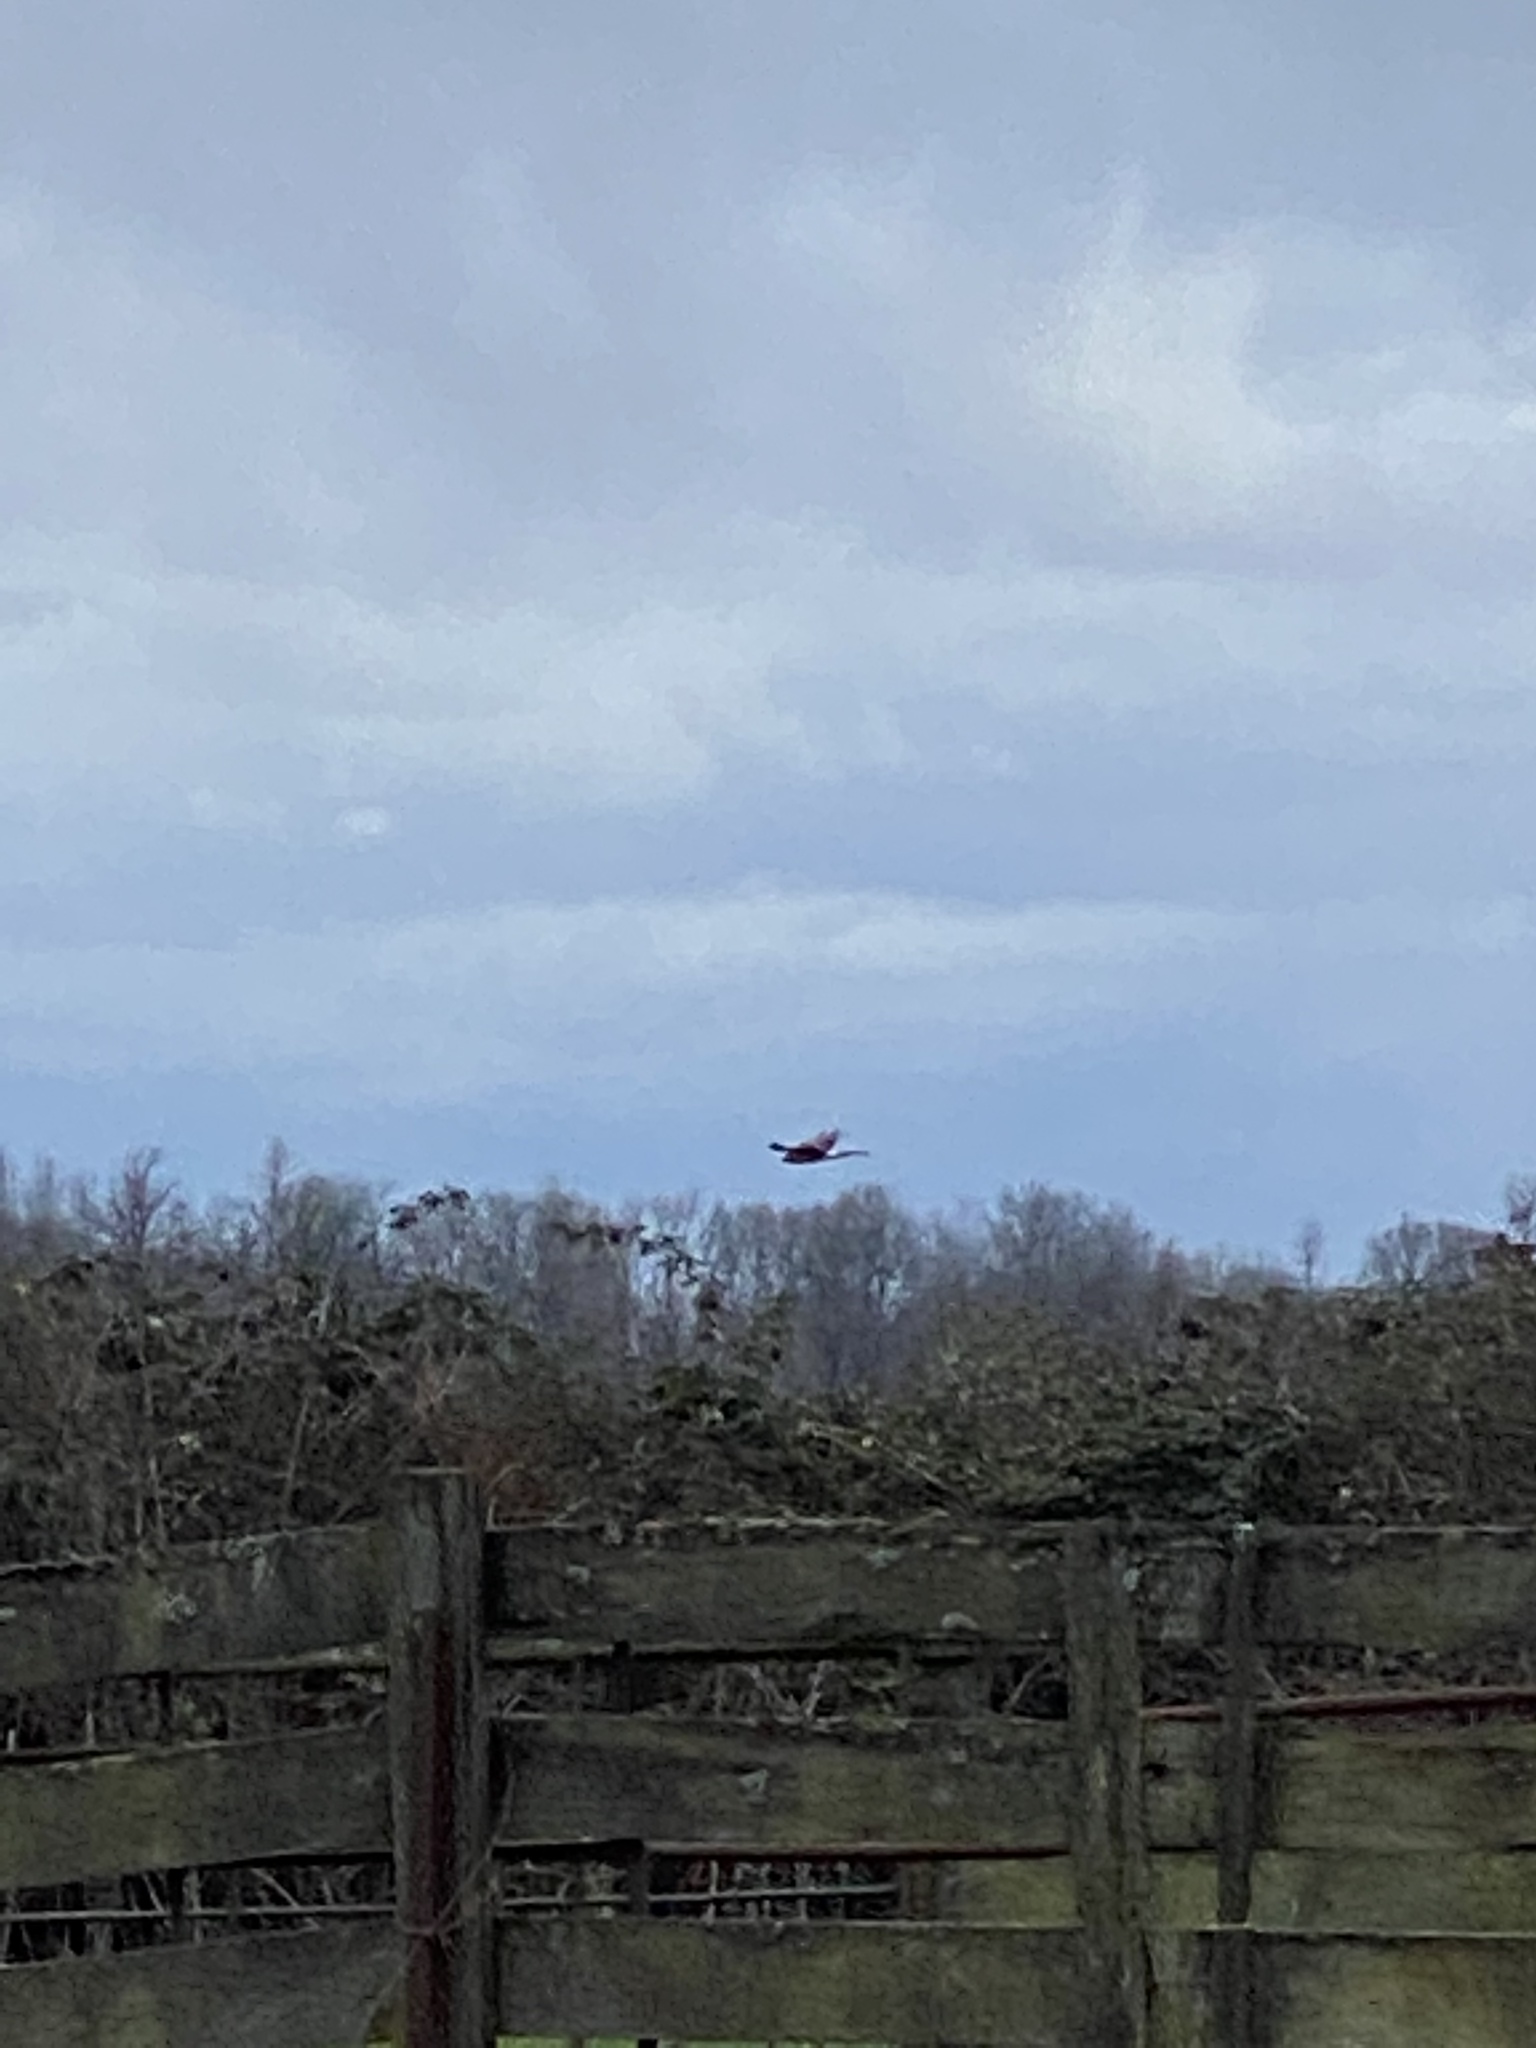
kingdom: Animalia
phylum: Chordata
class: Aves
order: Accipitriformes
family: Accipitridae
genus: Circus
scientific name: Circus cyaneus
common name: Hen harrier
